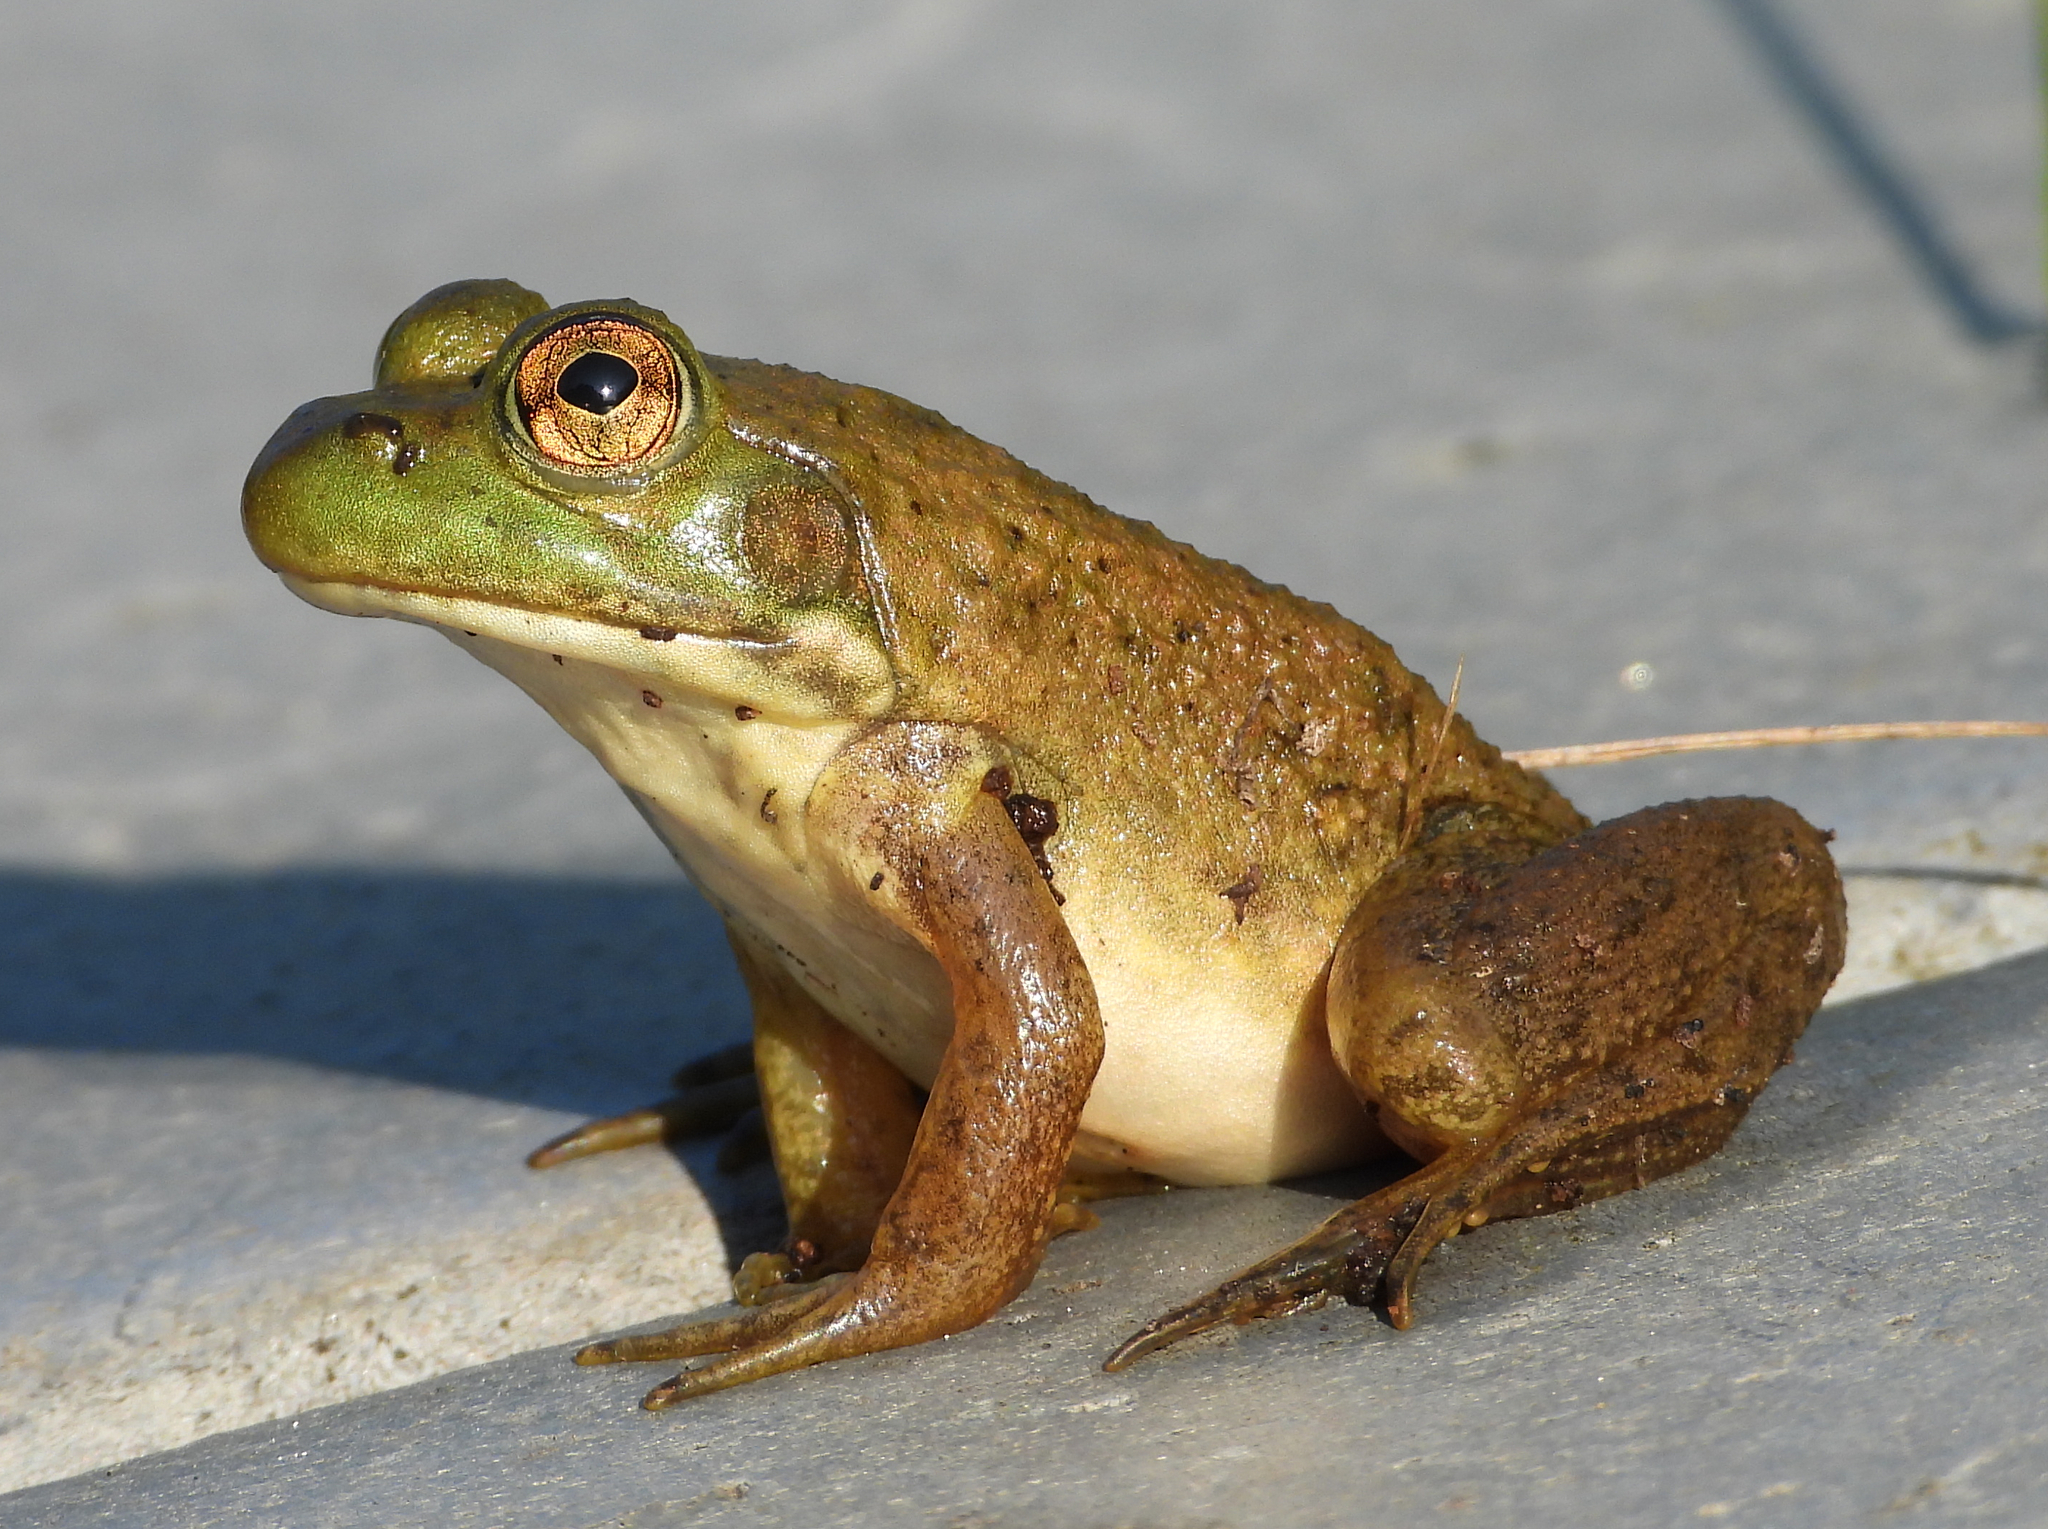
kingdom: Animalia
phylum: Chordata
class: Amphibia
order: Anura
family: Ranidae
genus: Lithobates
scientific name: Lithobates catesbeianus
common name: American bullfrog
